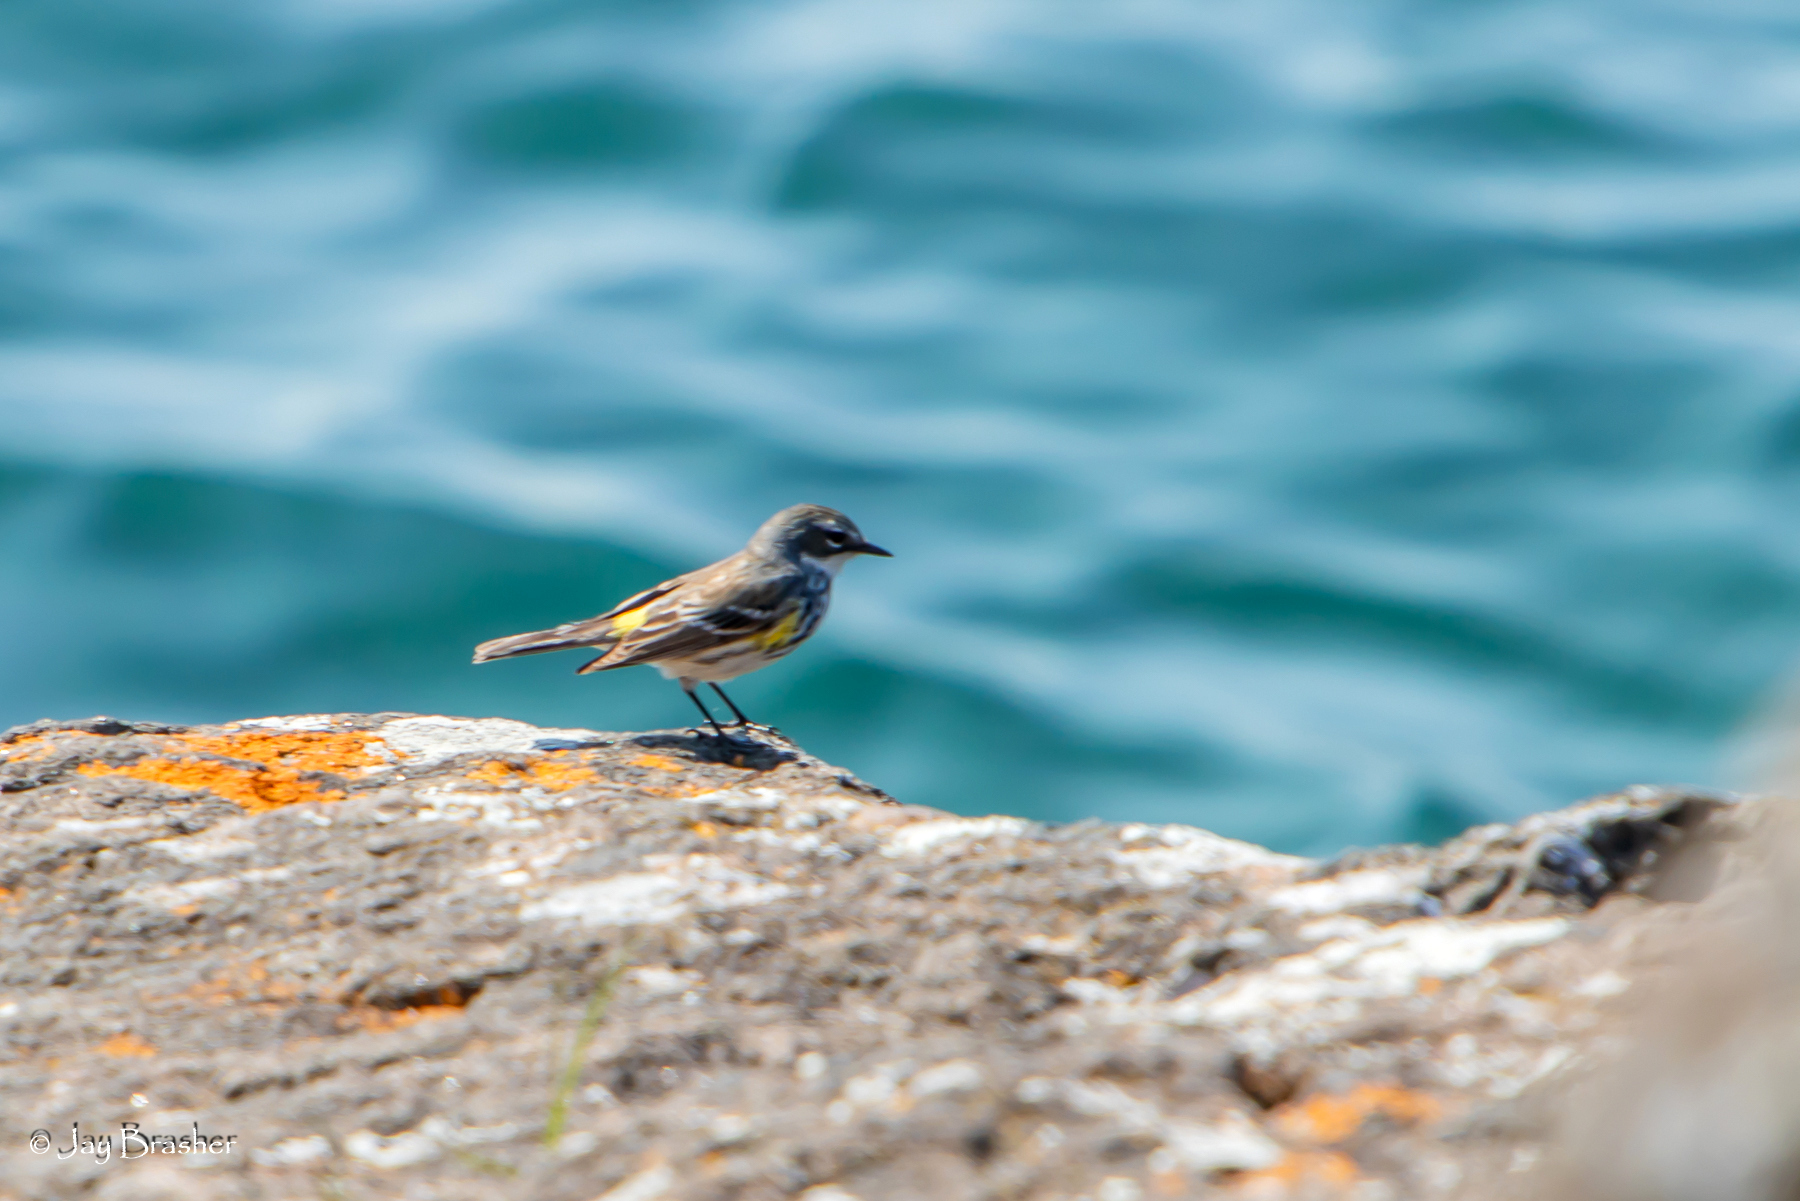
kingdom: Animalia
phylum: Chordata
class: Aves
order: Passeriformes
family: Parulidae
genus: Setophaga
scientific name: Setophaga coronata
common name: Myrtle warbler
